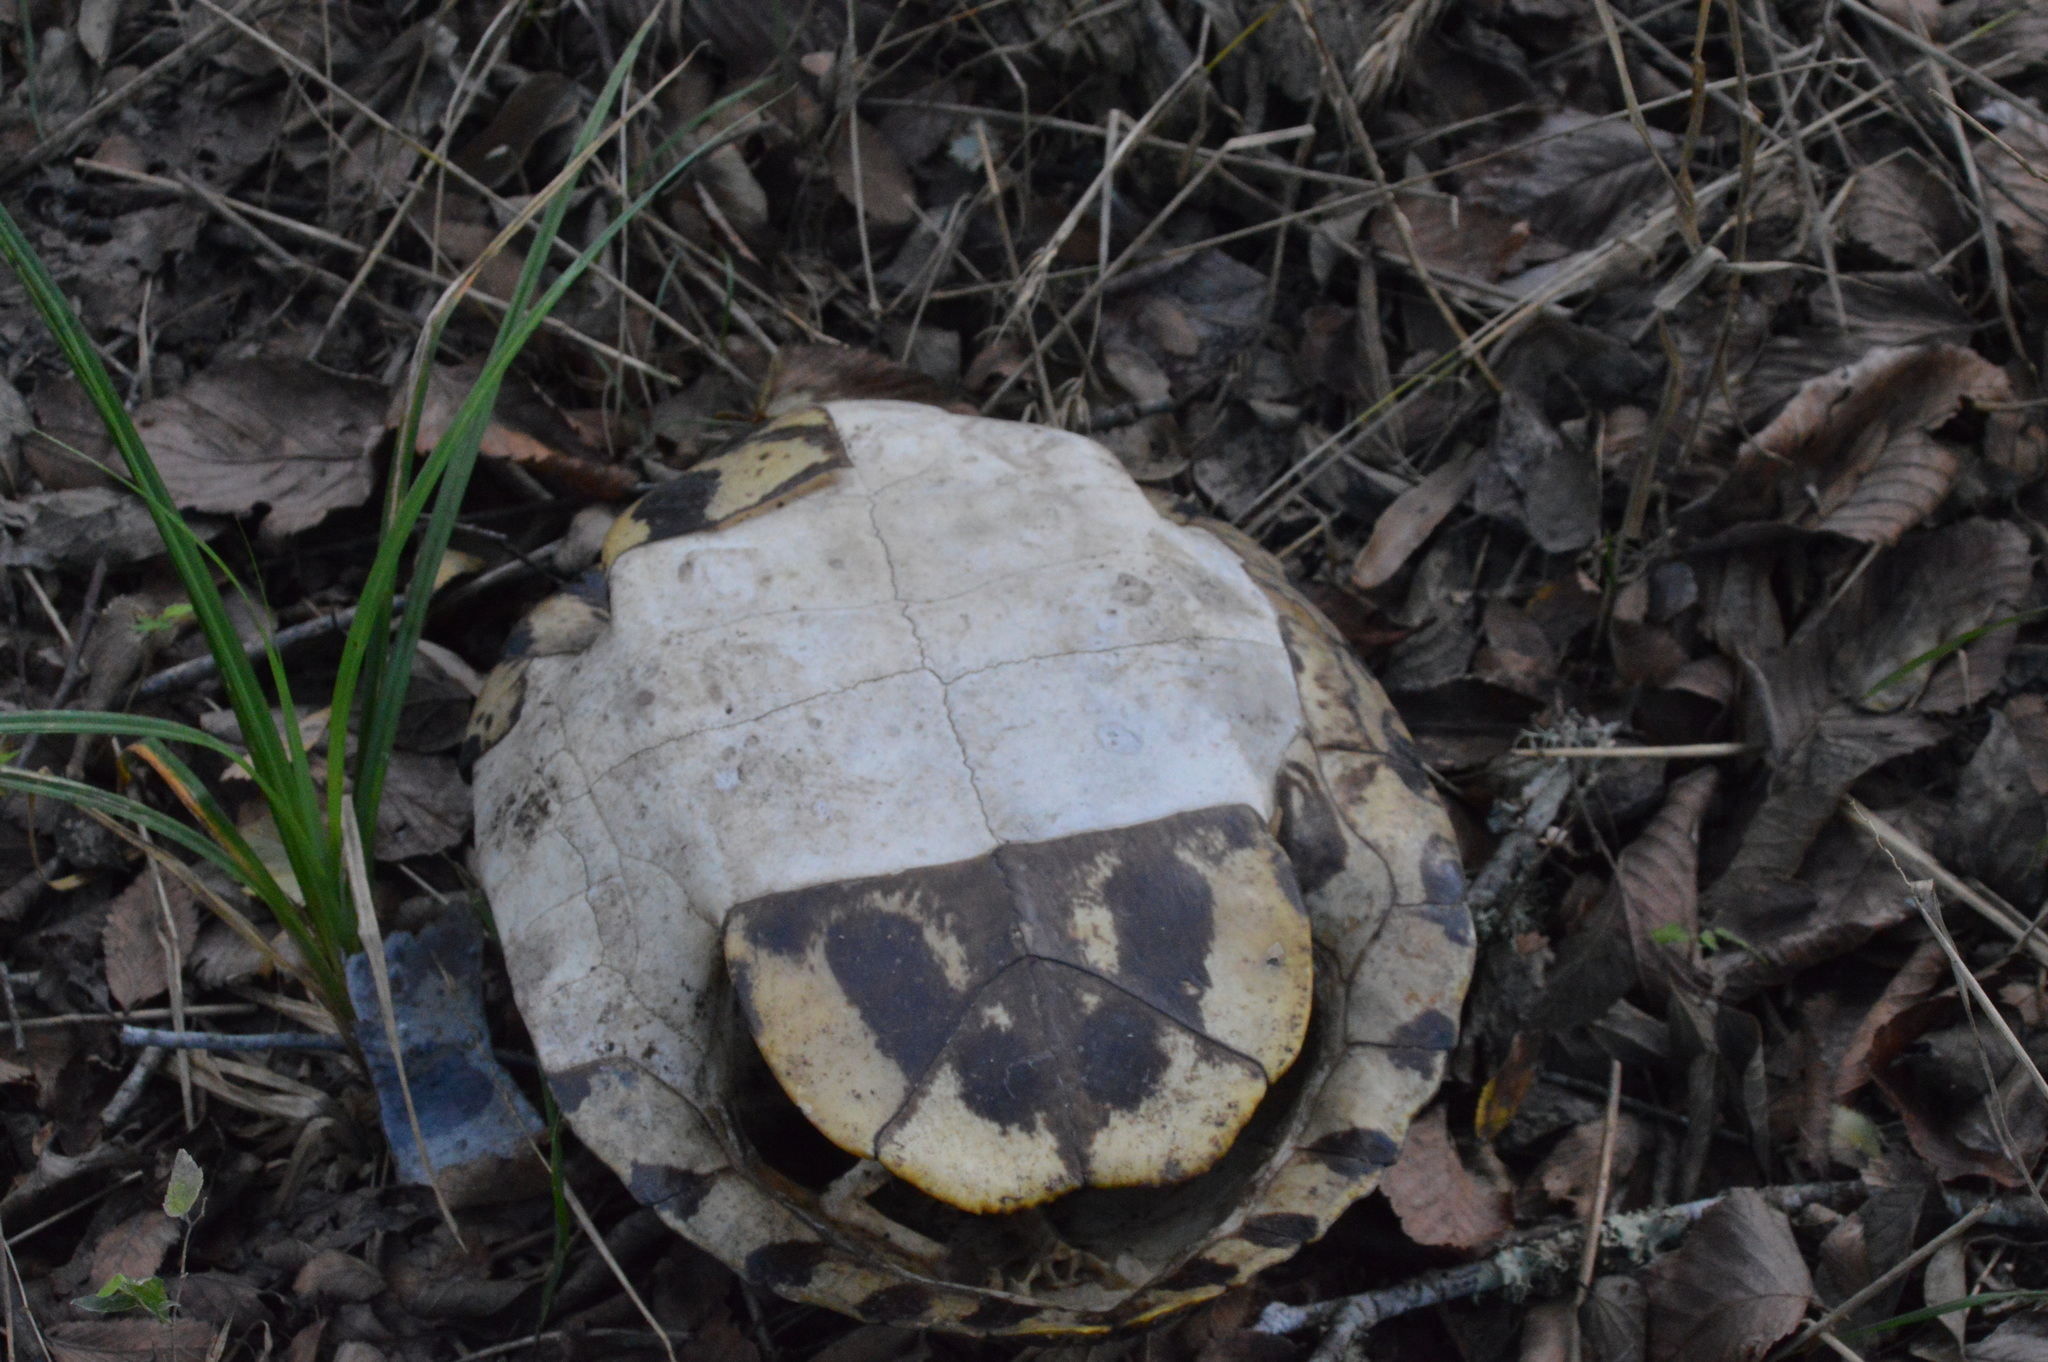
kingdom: Animalia
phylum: Chordata
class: Testudines
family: Emydidae
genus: Trachemys
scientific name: Trachemys scripta
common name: Slider
